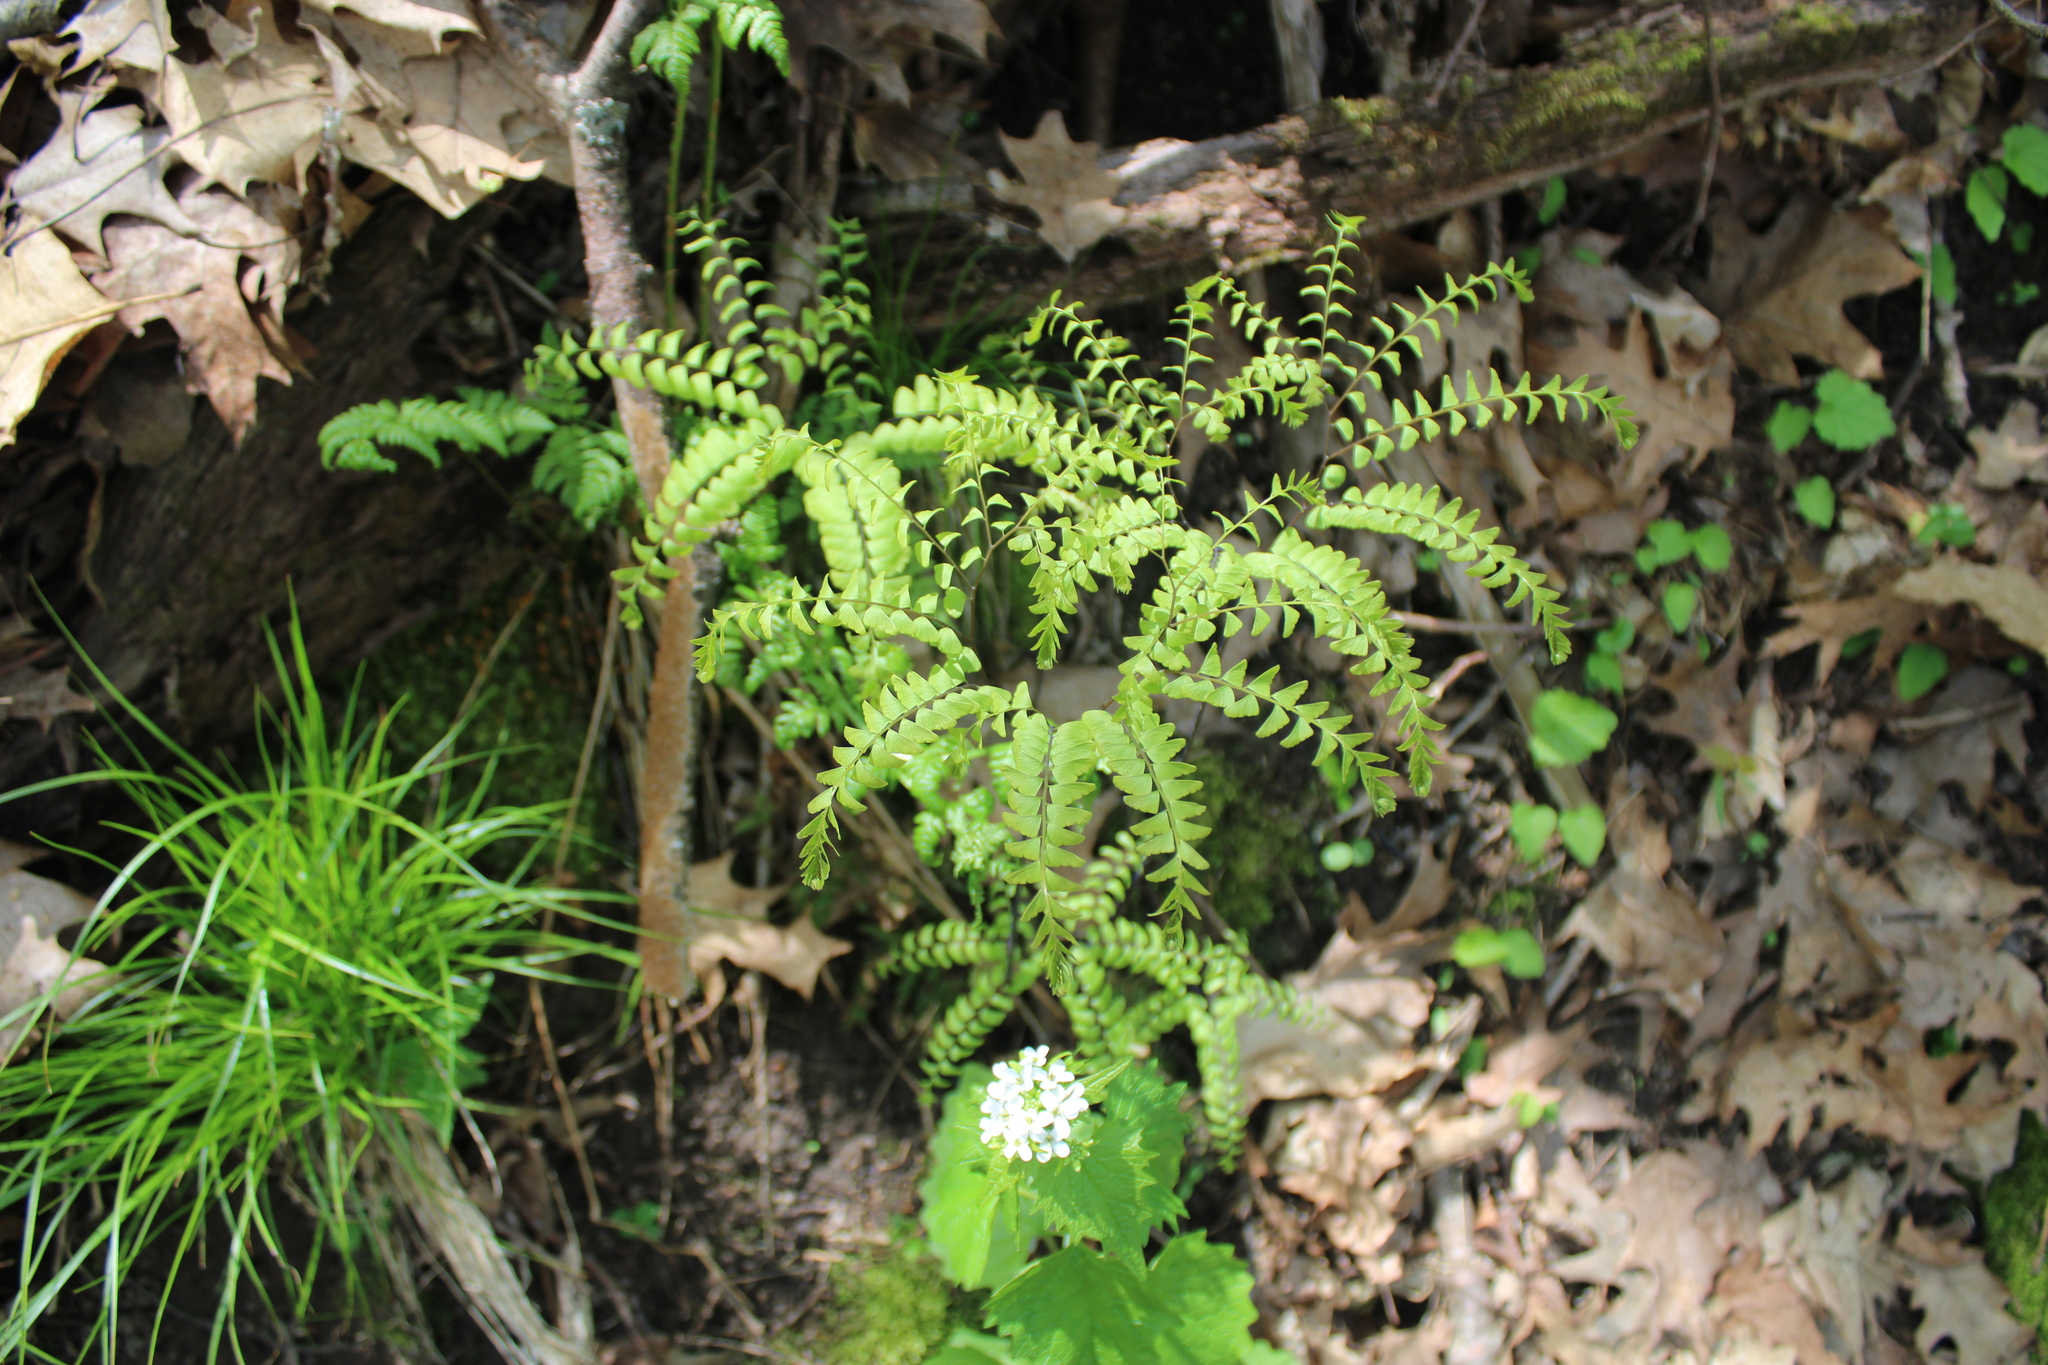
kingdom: Plantae
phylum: Tracheophyta
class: Polypodiopsida
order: Polypodiales
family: Pteridaceae
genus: Adiantum
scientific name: Adiantum pedatum
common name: Five-finger fern
